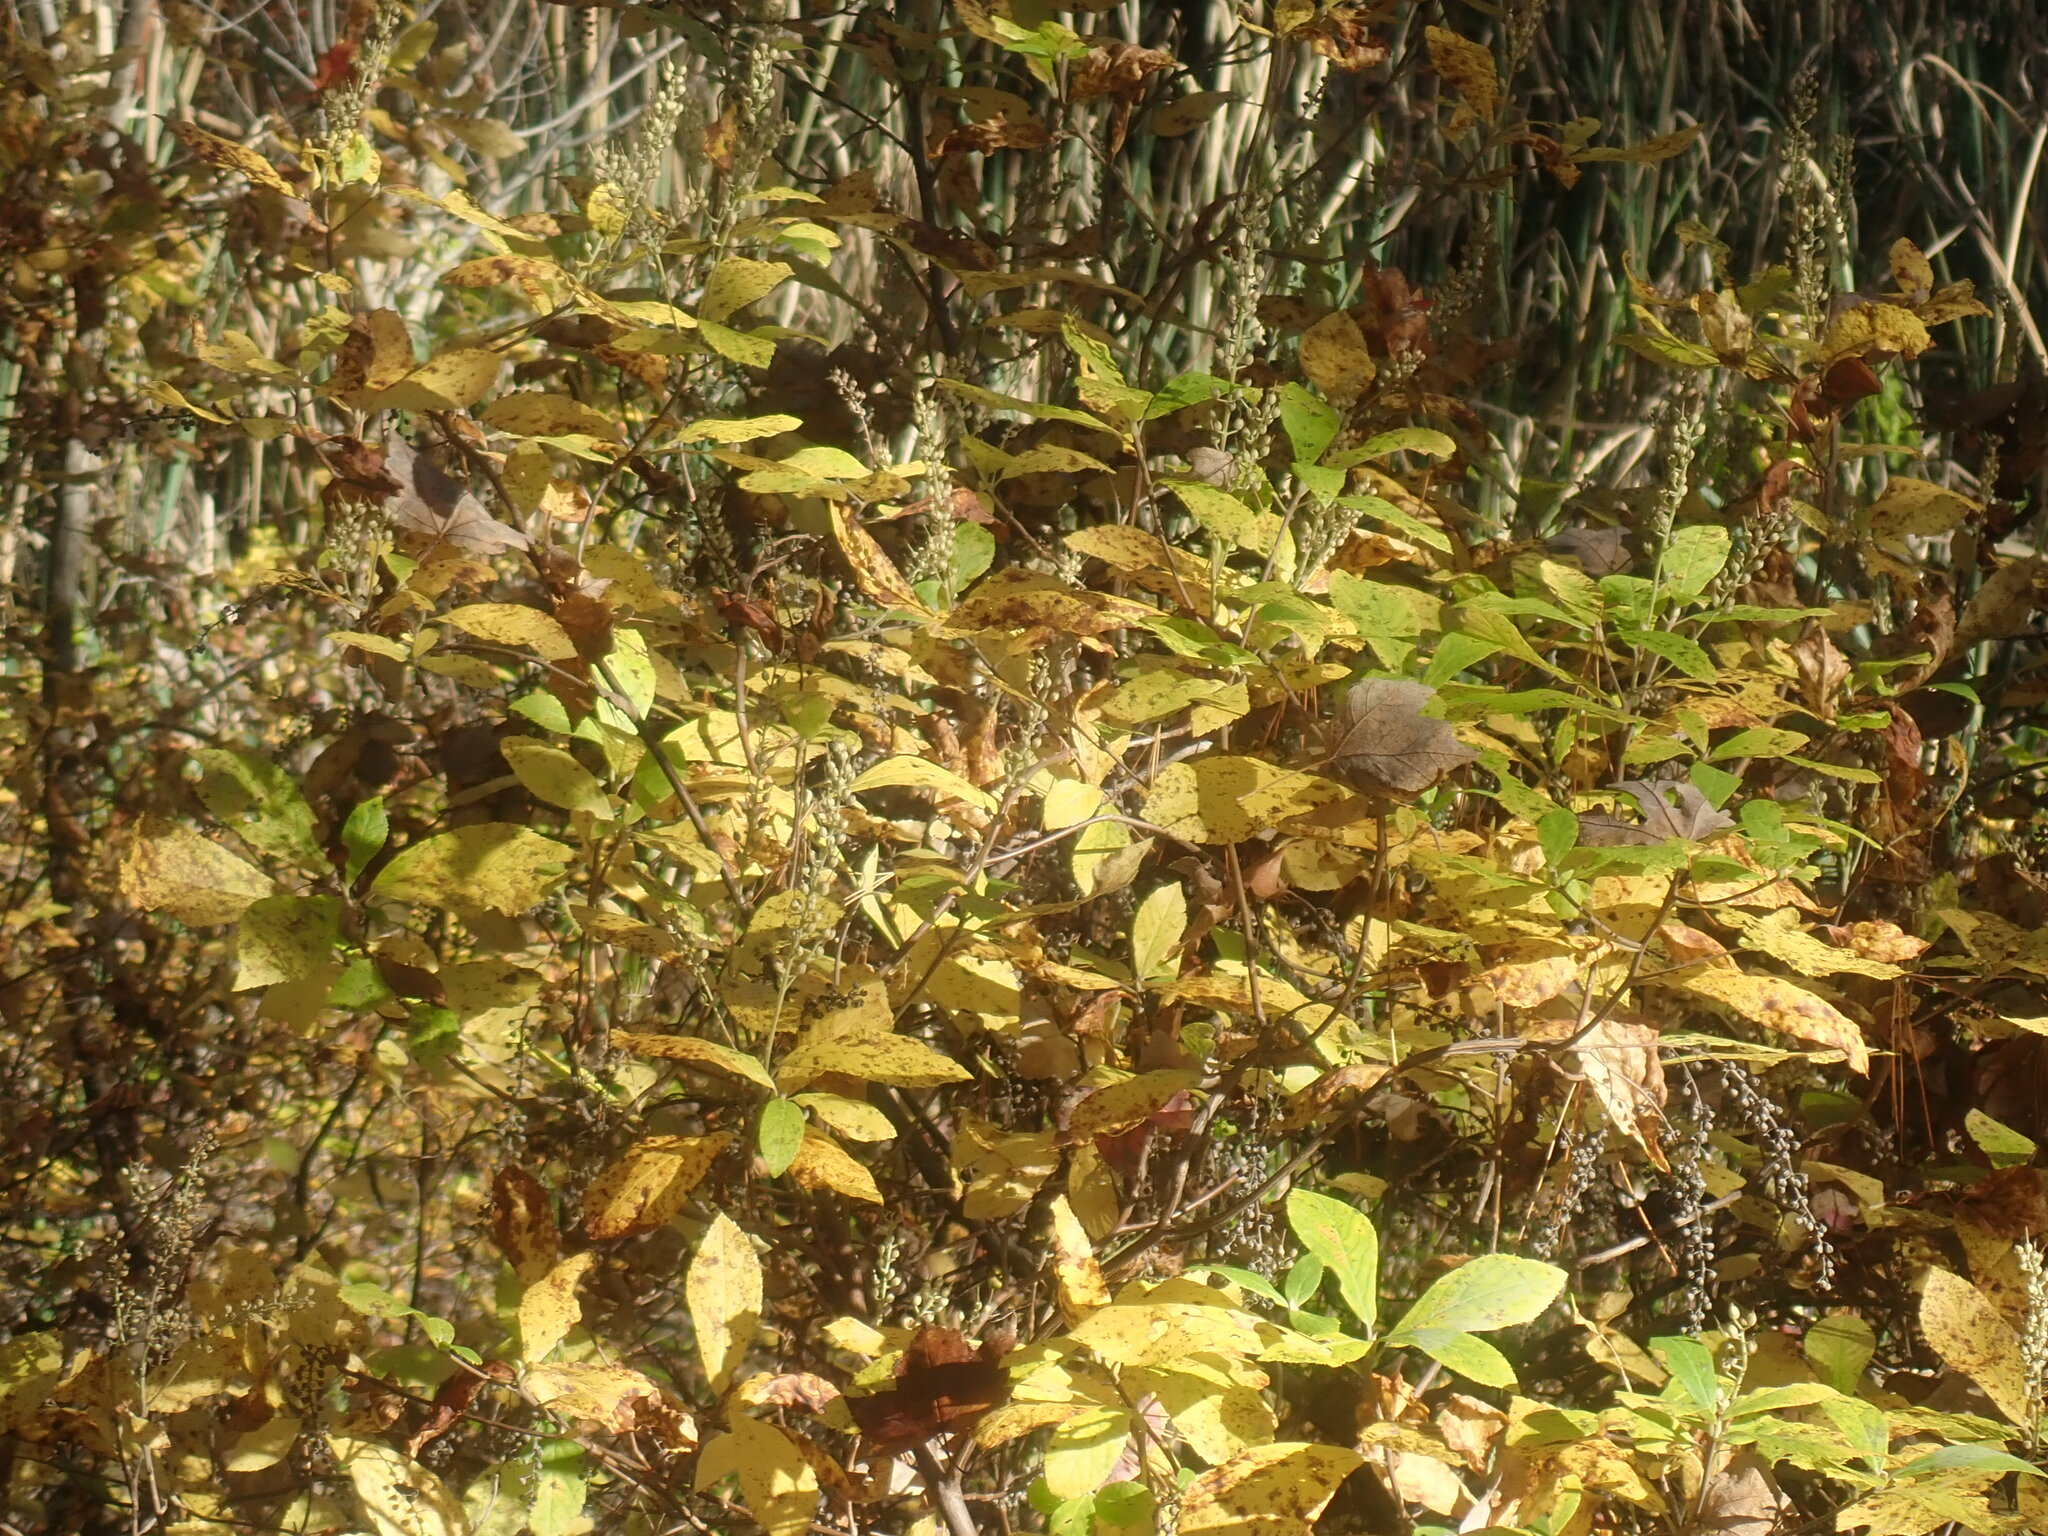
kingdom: Plantae
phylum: Tracheophyta
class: Magnoliopsida
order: Ericales
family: Clethraceae
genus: Clethra
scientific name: Clethra alnifolia
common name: Sweet pepperbush
